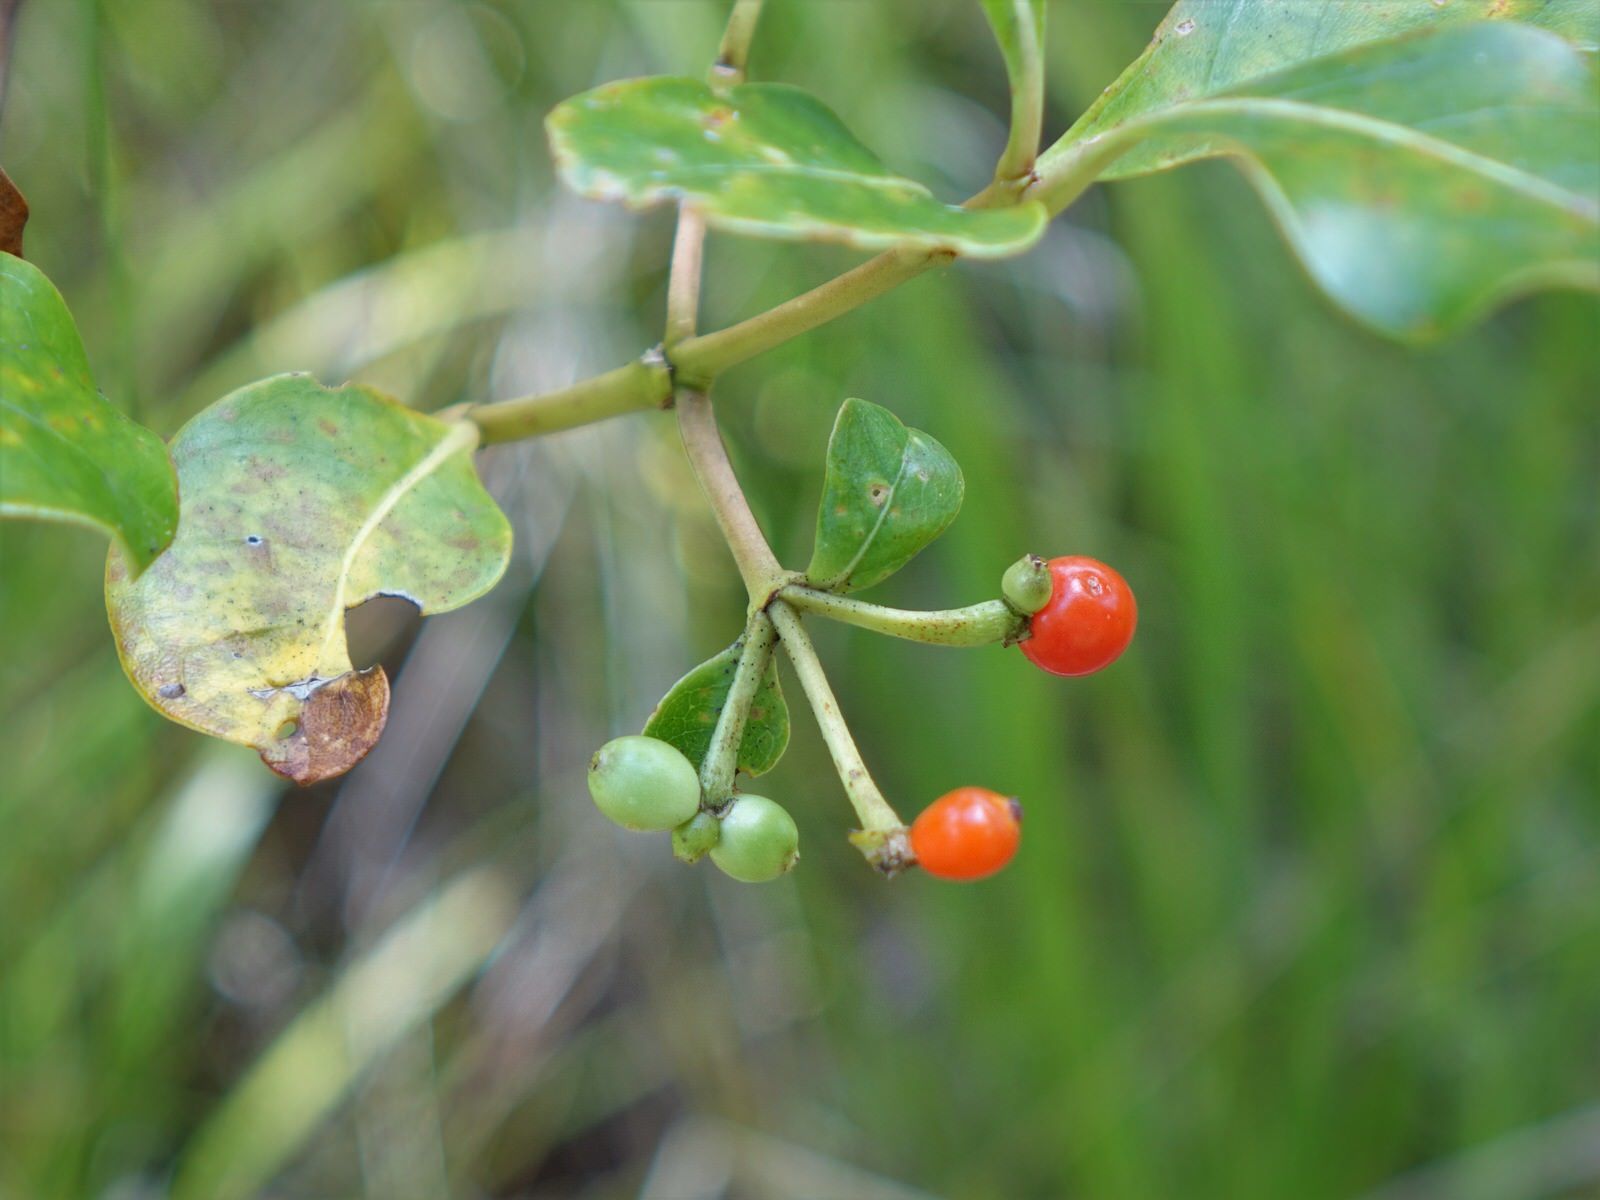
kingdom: Plantae
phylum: Tracheophyta
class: Magnoliopsida
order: Gentianales
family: Rubiaceae
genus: Coprosma
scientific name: Coprosma lucida
